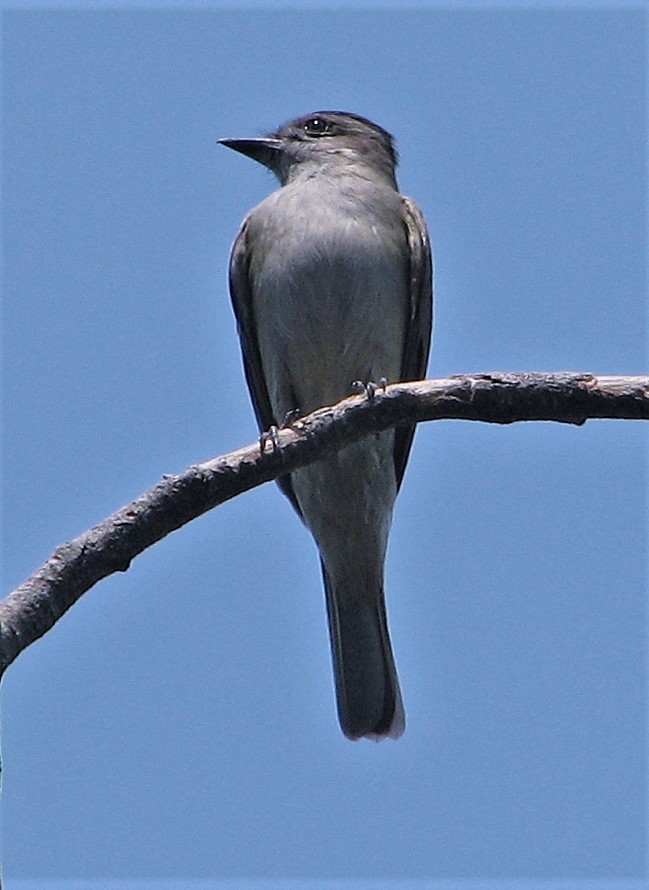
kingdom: Animalia
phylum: Chordata
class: Aves
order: Passeriformes
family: Tyrannidae
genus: Empidonomus
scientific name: Empidonomus aurantioatrocristatus
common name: Crowned slaty flycatcher
